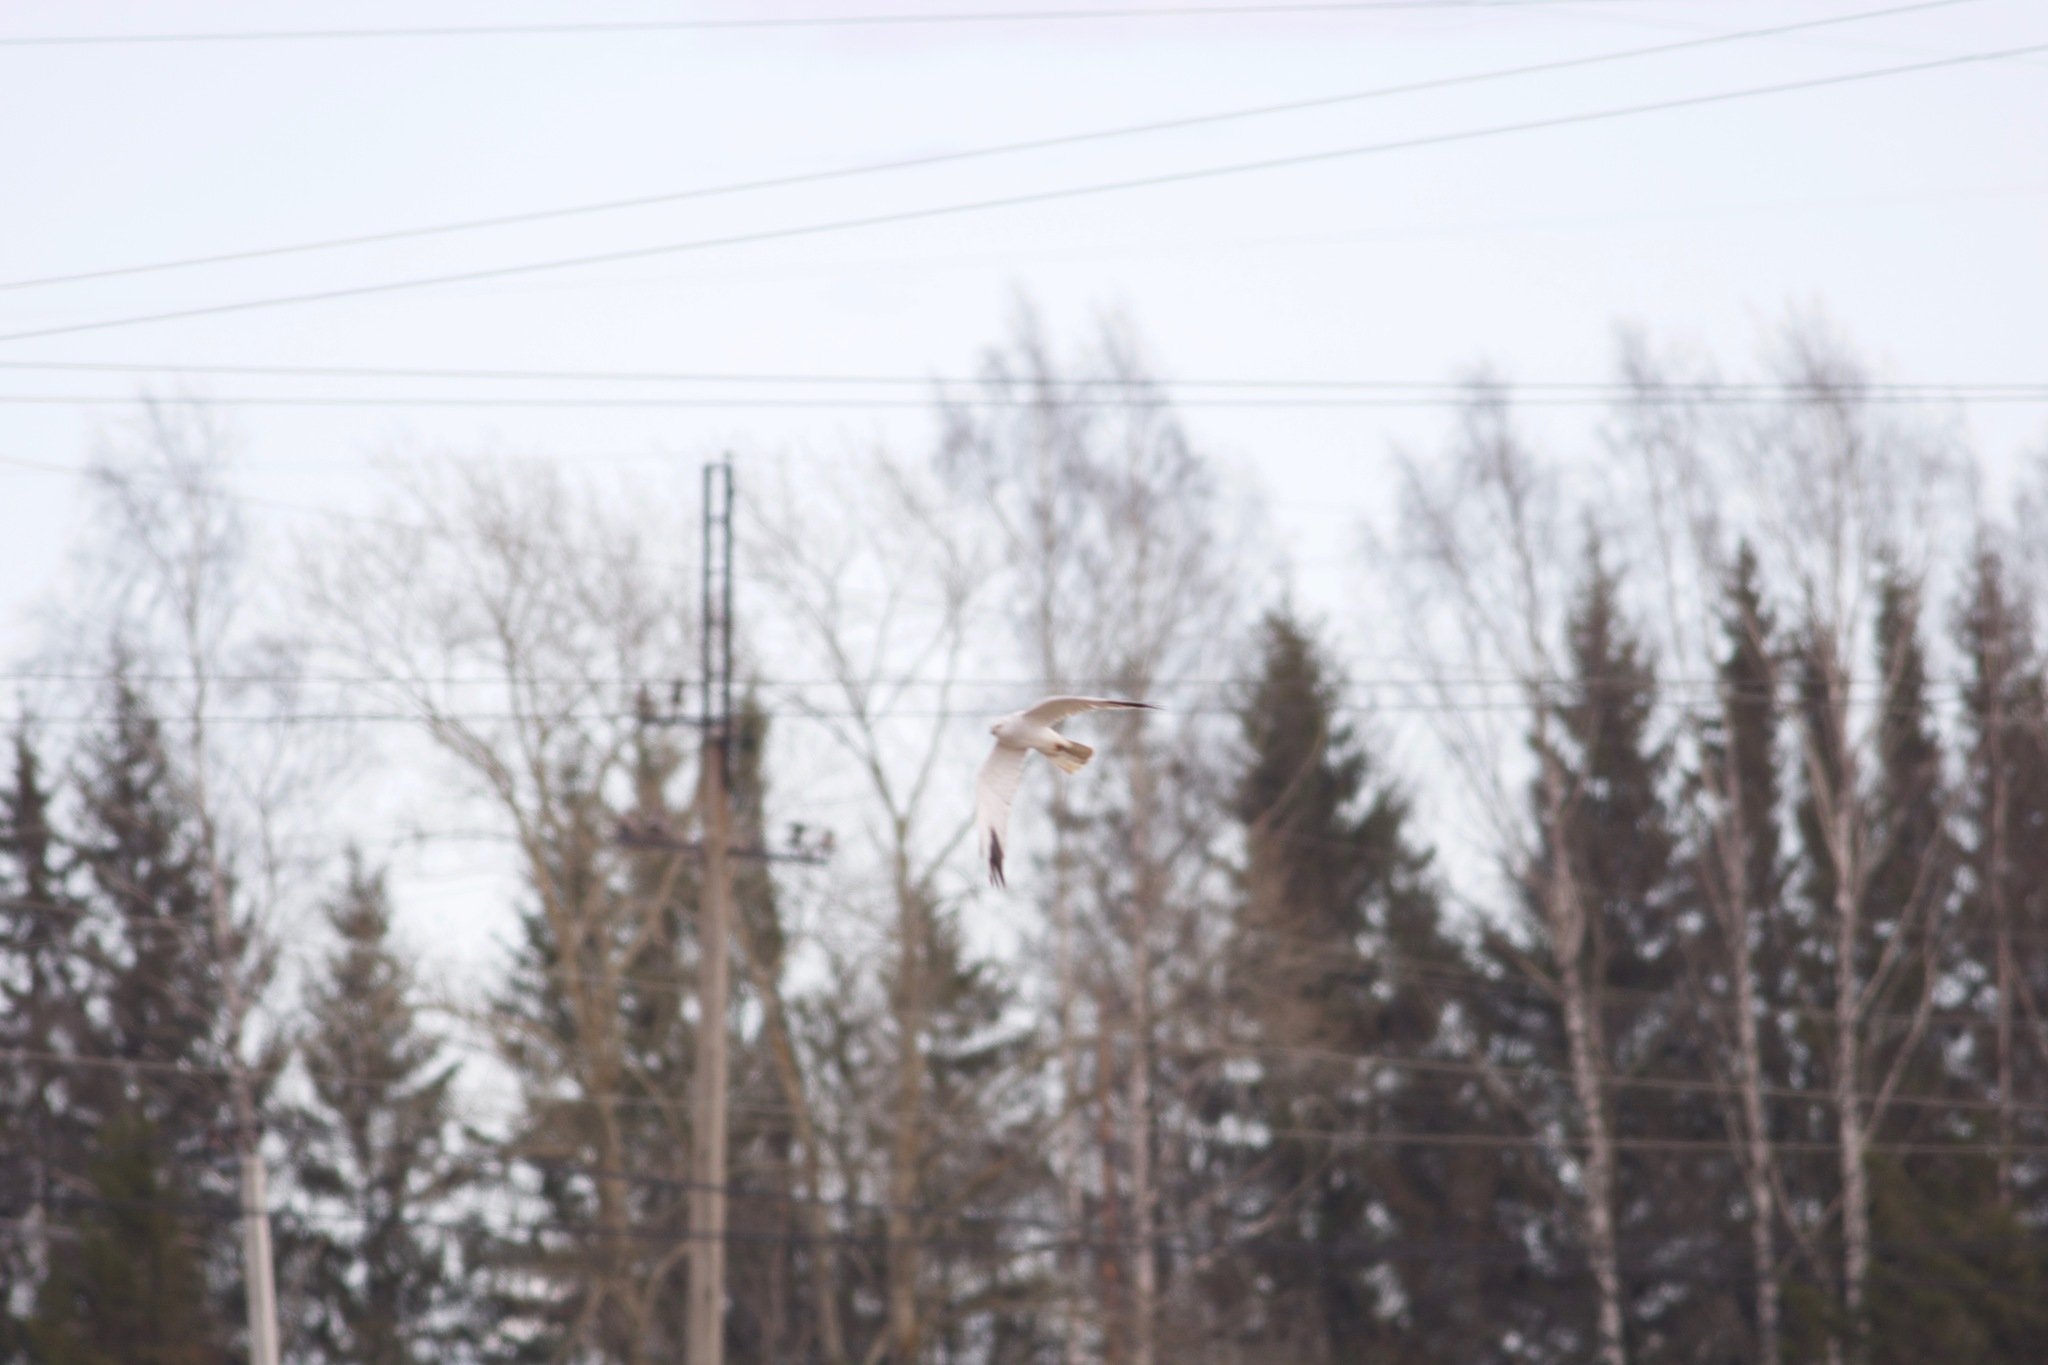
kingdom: Animalia
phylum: Chordata
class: Aves
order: Accipitriformes
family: Accipitridae
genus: Circus
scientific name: Circus macrourus
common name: Pallid harrier
